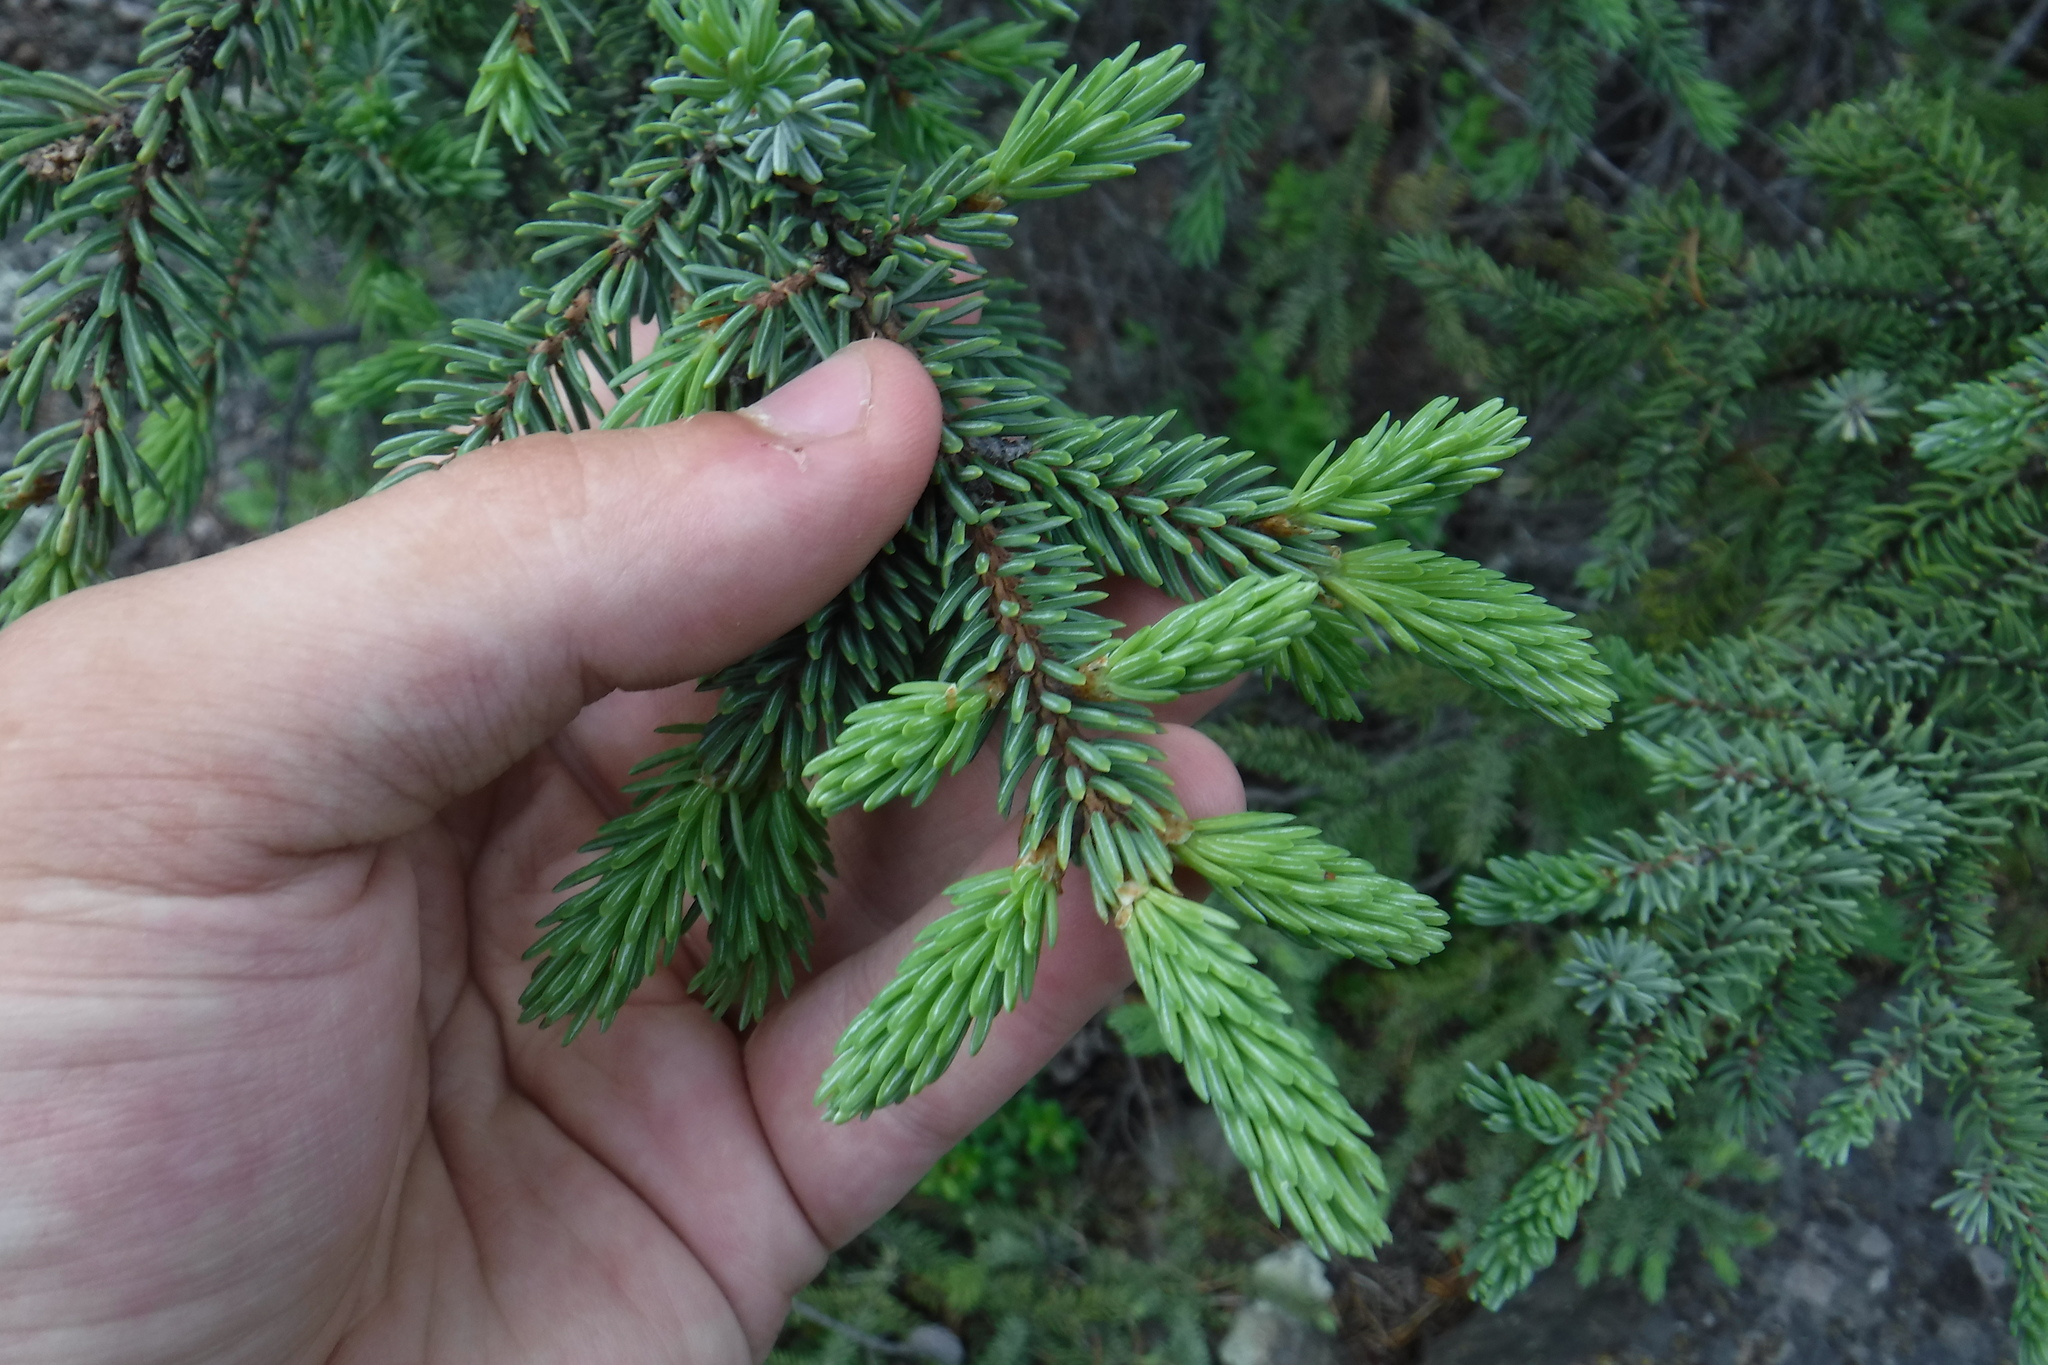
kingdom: Plantae
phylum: Tracheophyta
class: Pinopsida
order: Pinales
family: Pinaceae
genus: Picea
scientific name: Picea glauca
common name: White spruce
